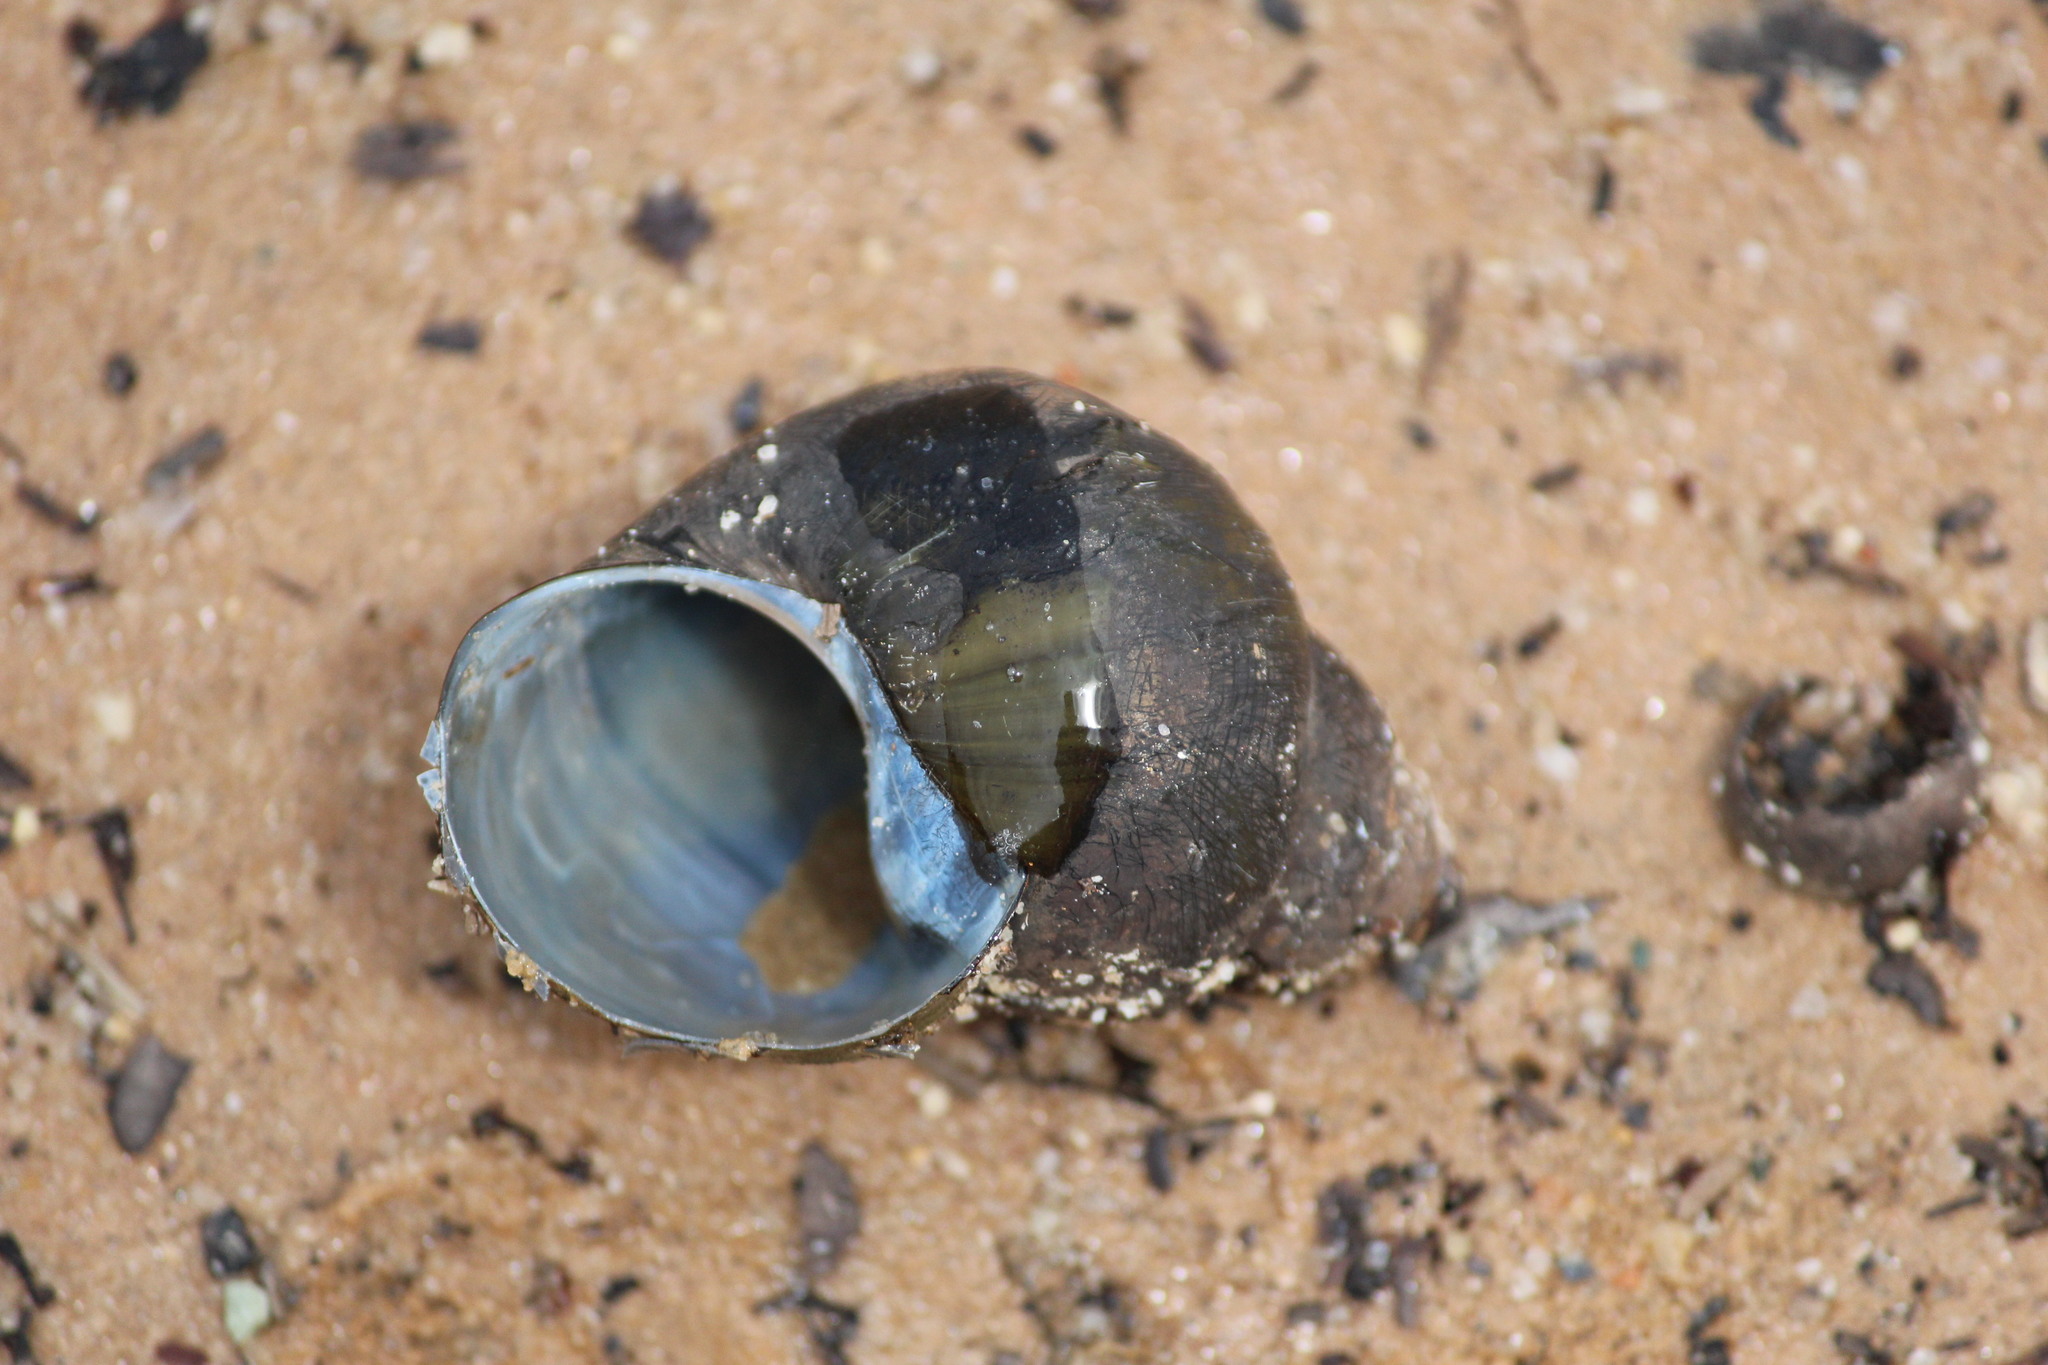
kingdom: Animalia
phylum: Mollusca
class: Gastropoda
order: Architaenioglossa
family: Viviparidae
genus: Cipangopaludina
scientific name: Cipangopaludina chinensis
